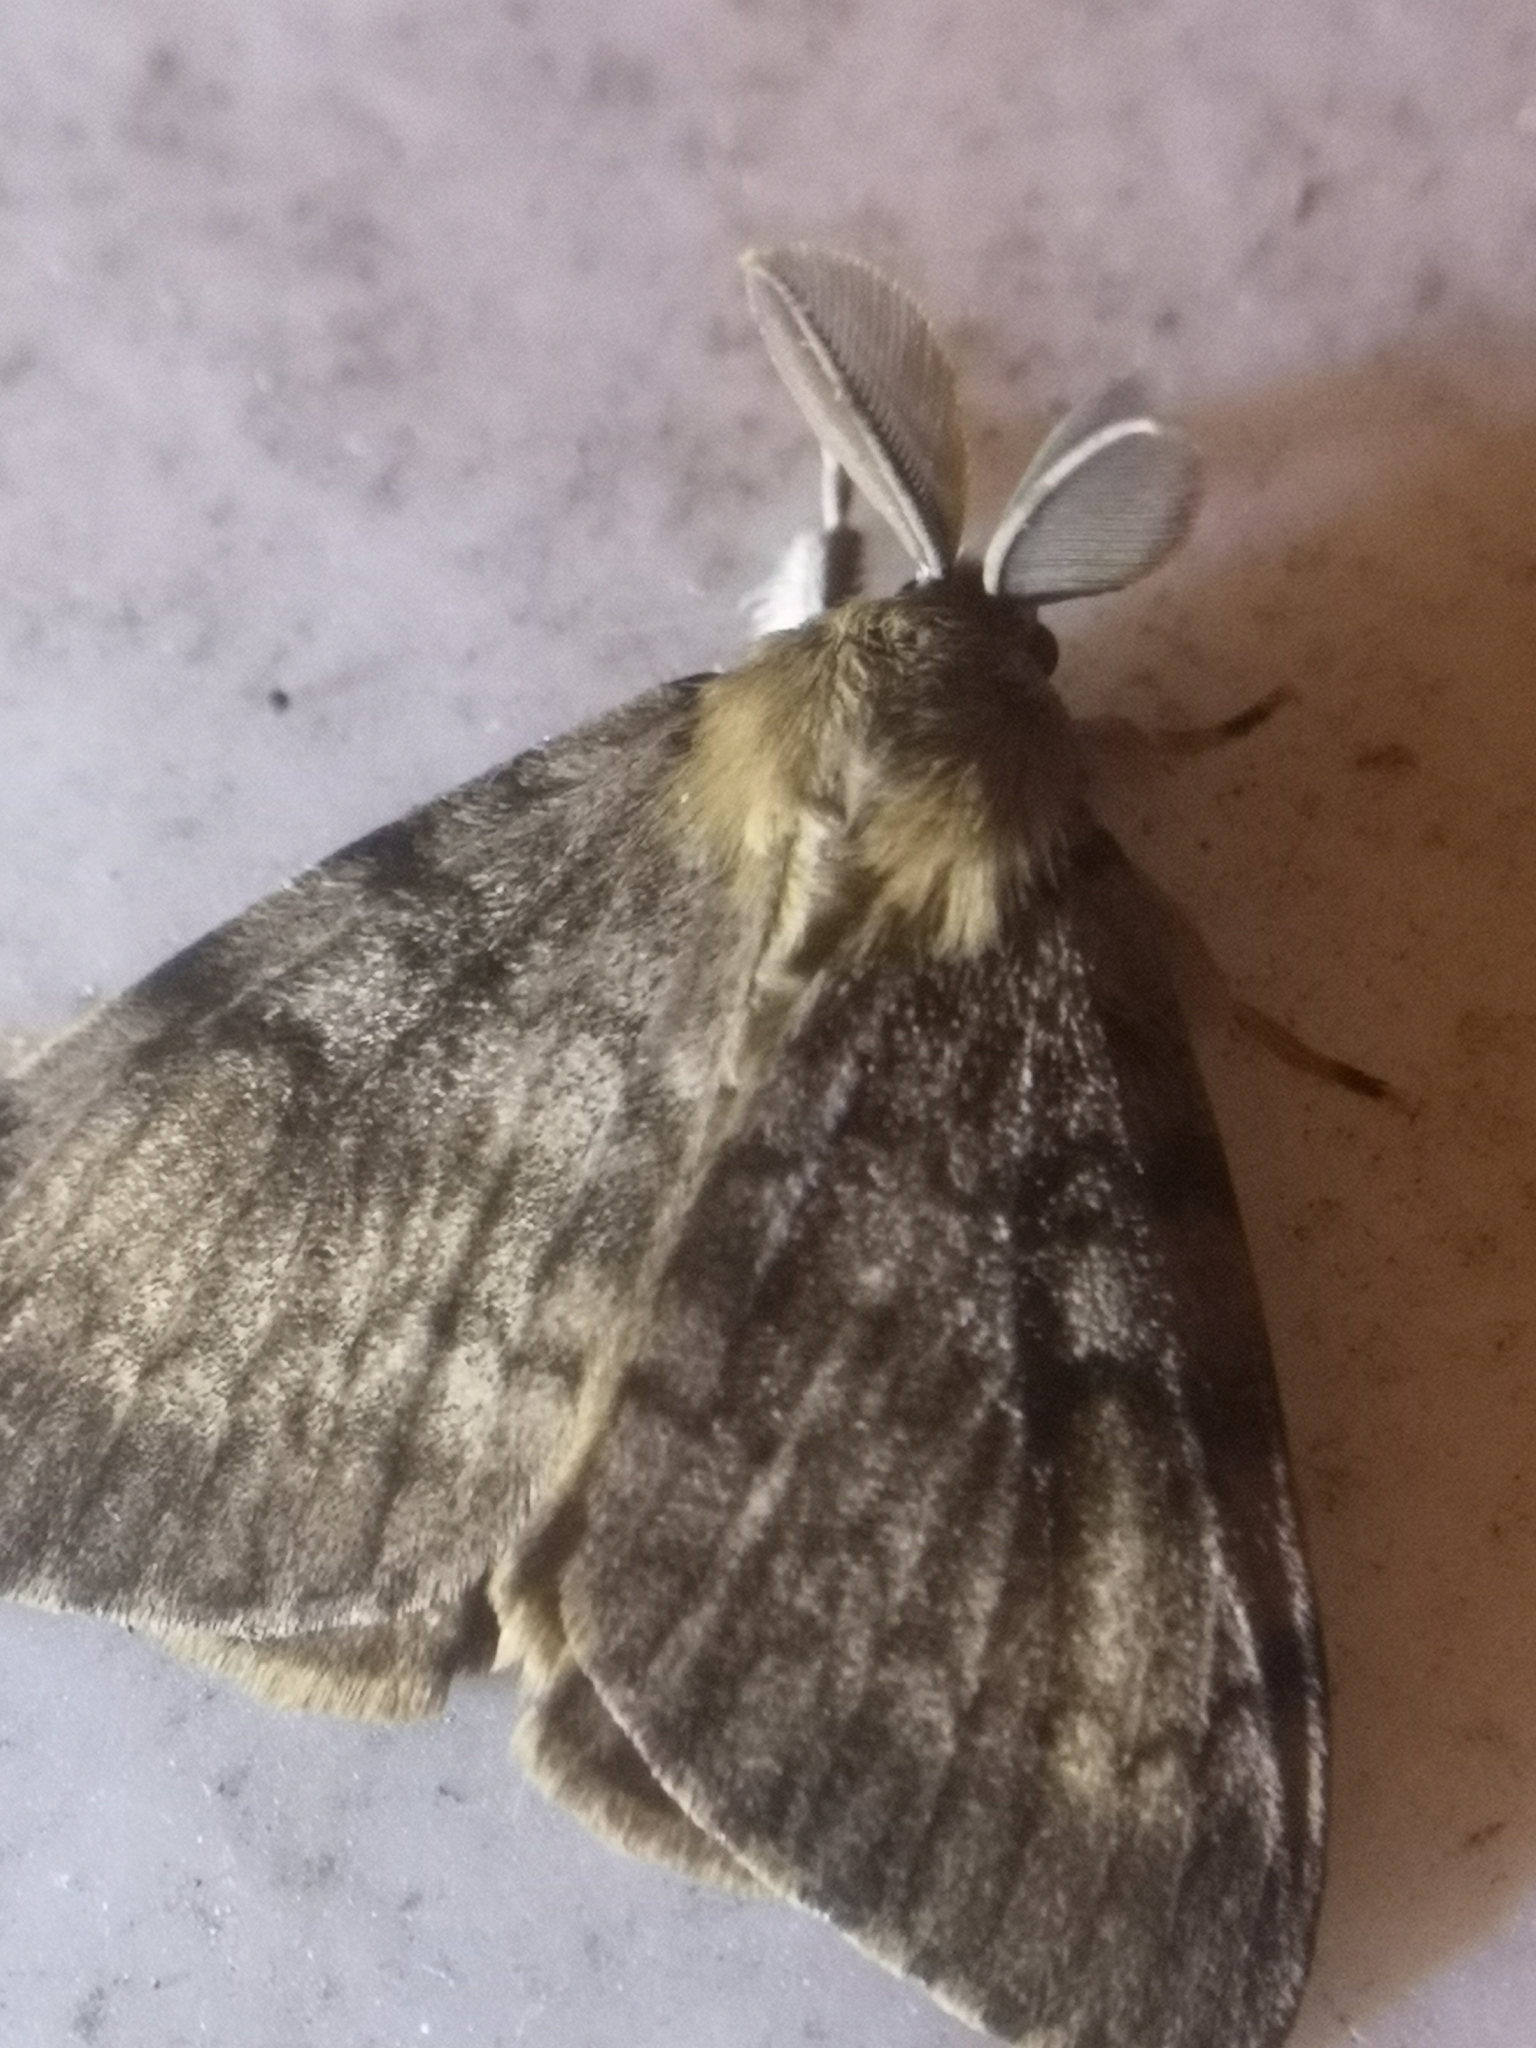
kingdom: Animalia
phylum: Arthropoda
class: Insecta
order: Lepidoptera
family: Erebidae
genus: Lymantria
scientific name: Lymantria dispar
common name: Gypsy moth
